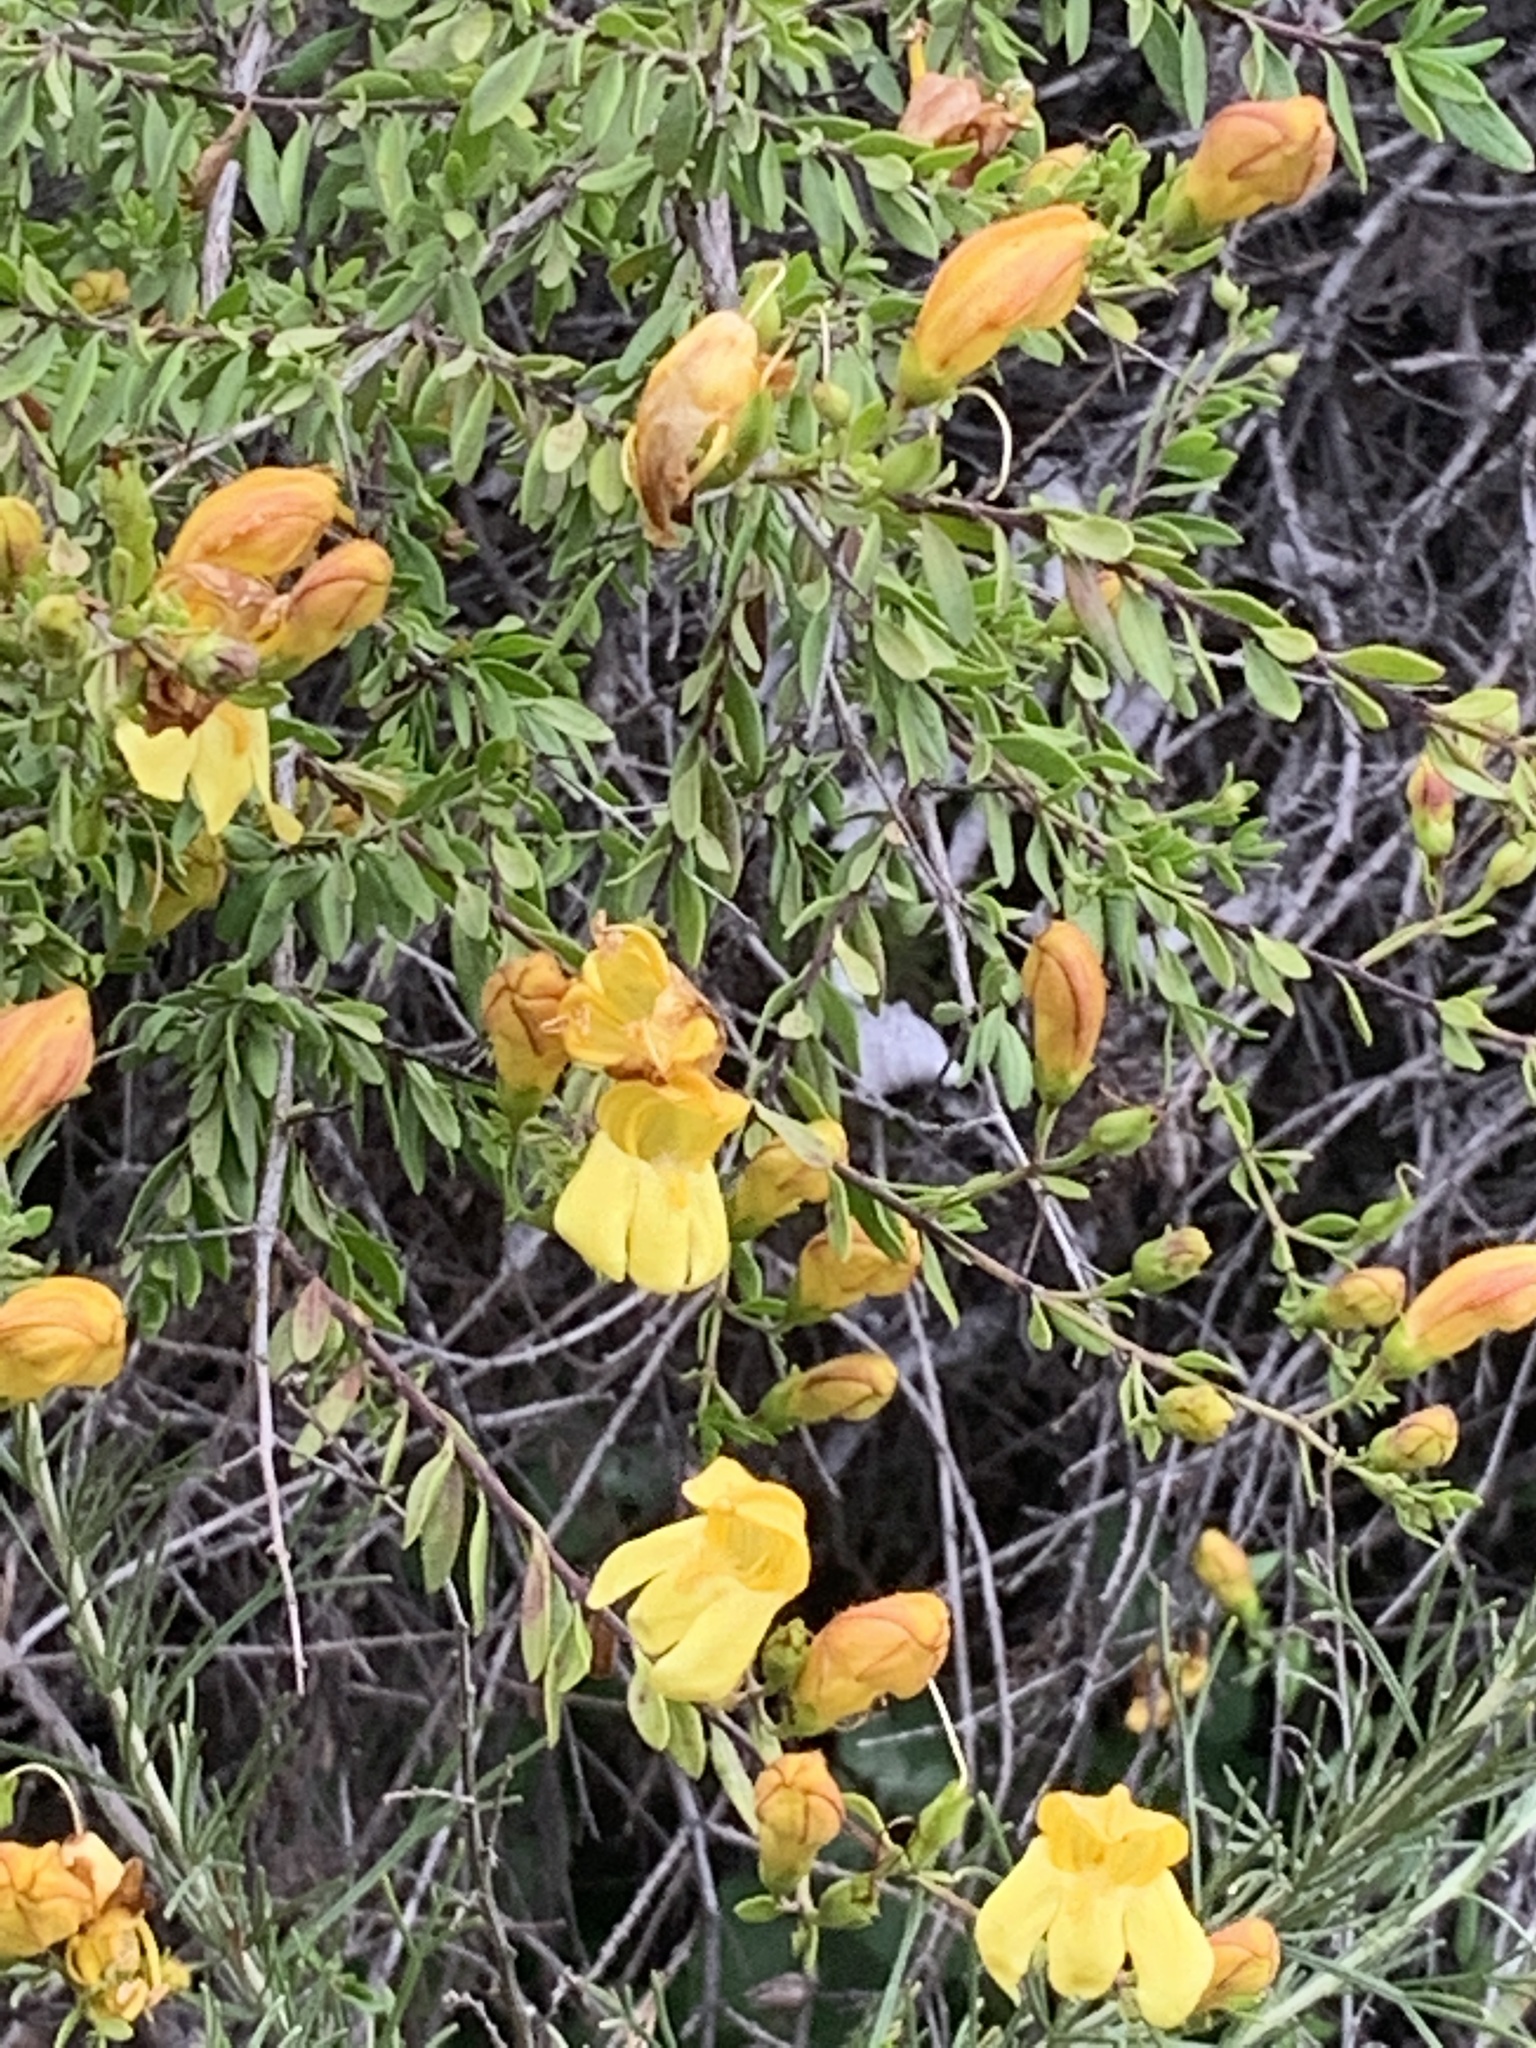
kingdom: Plantae
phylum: Tracheophyta
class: Magnoliopsida
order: Lamiales
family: Plantaginaceae
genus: Keckiella
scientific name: Keckiella antirrhinoides
